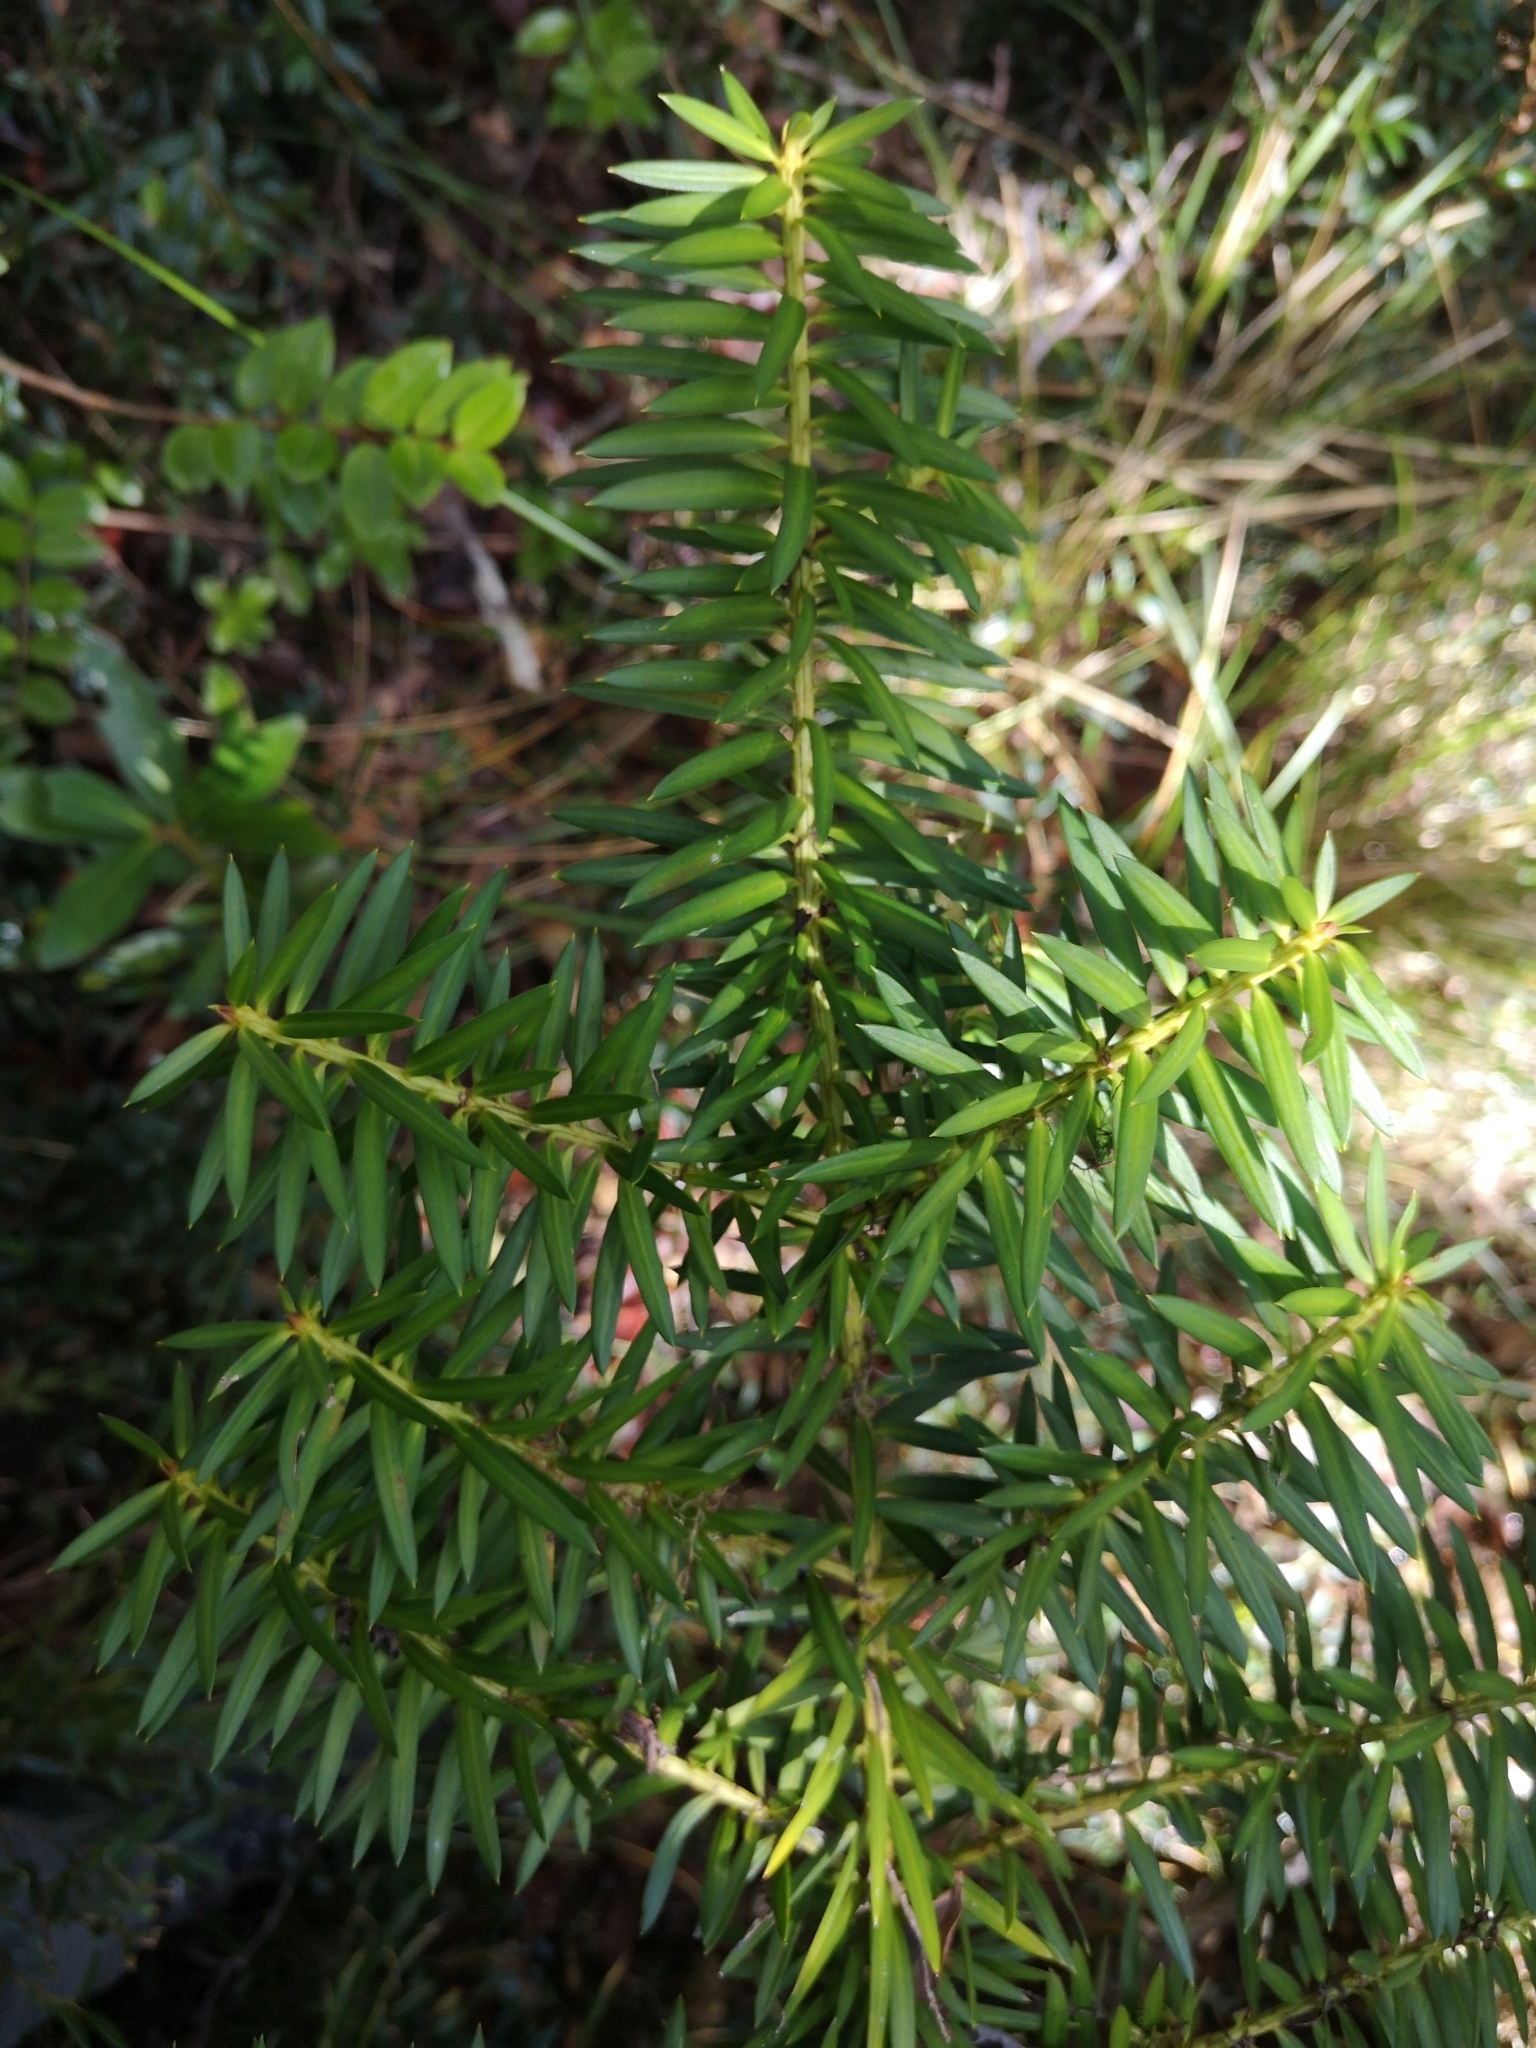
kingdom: Plantae
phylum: Tracheophyta
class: Pinopsida
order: Pinales
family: Podocarpaceae
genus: Podocarpus
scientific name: Podocarpus nubigenus
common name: Cloud podocarp
